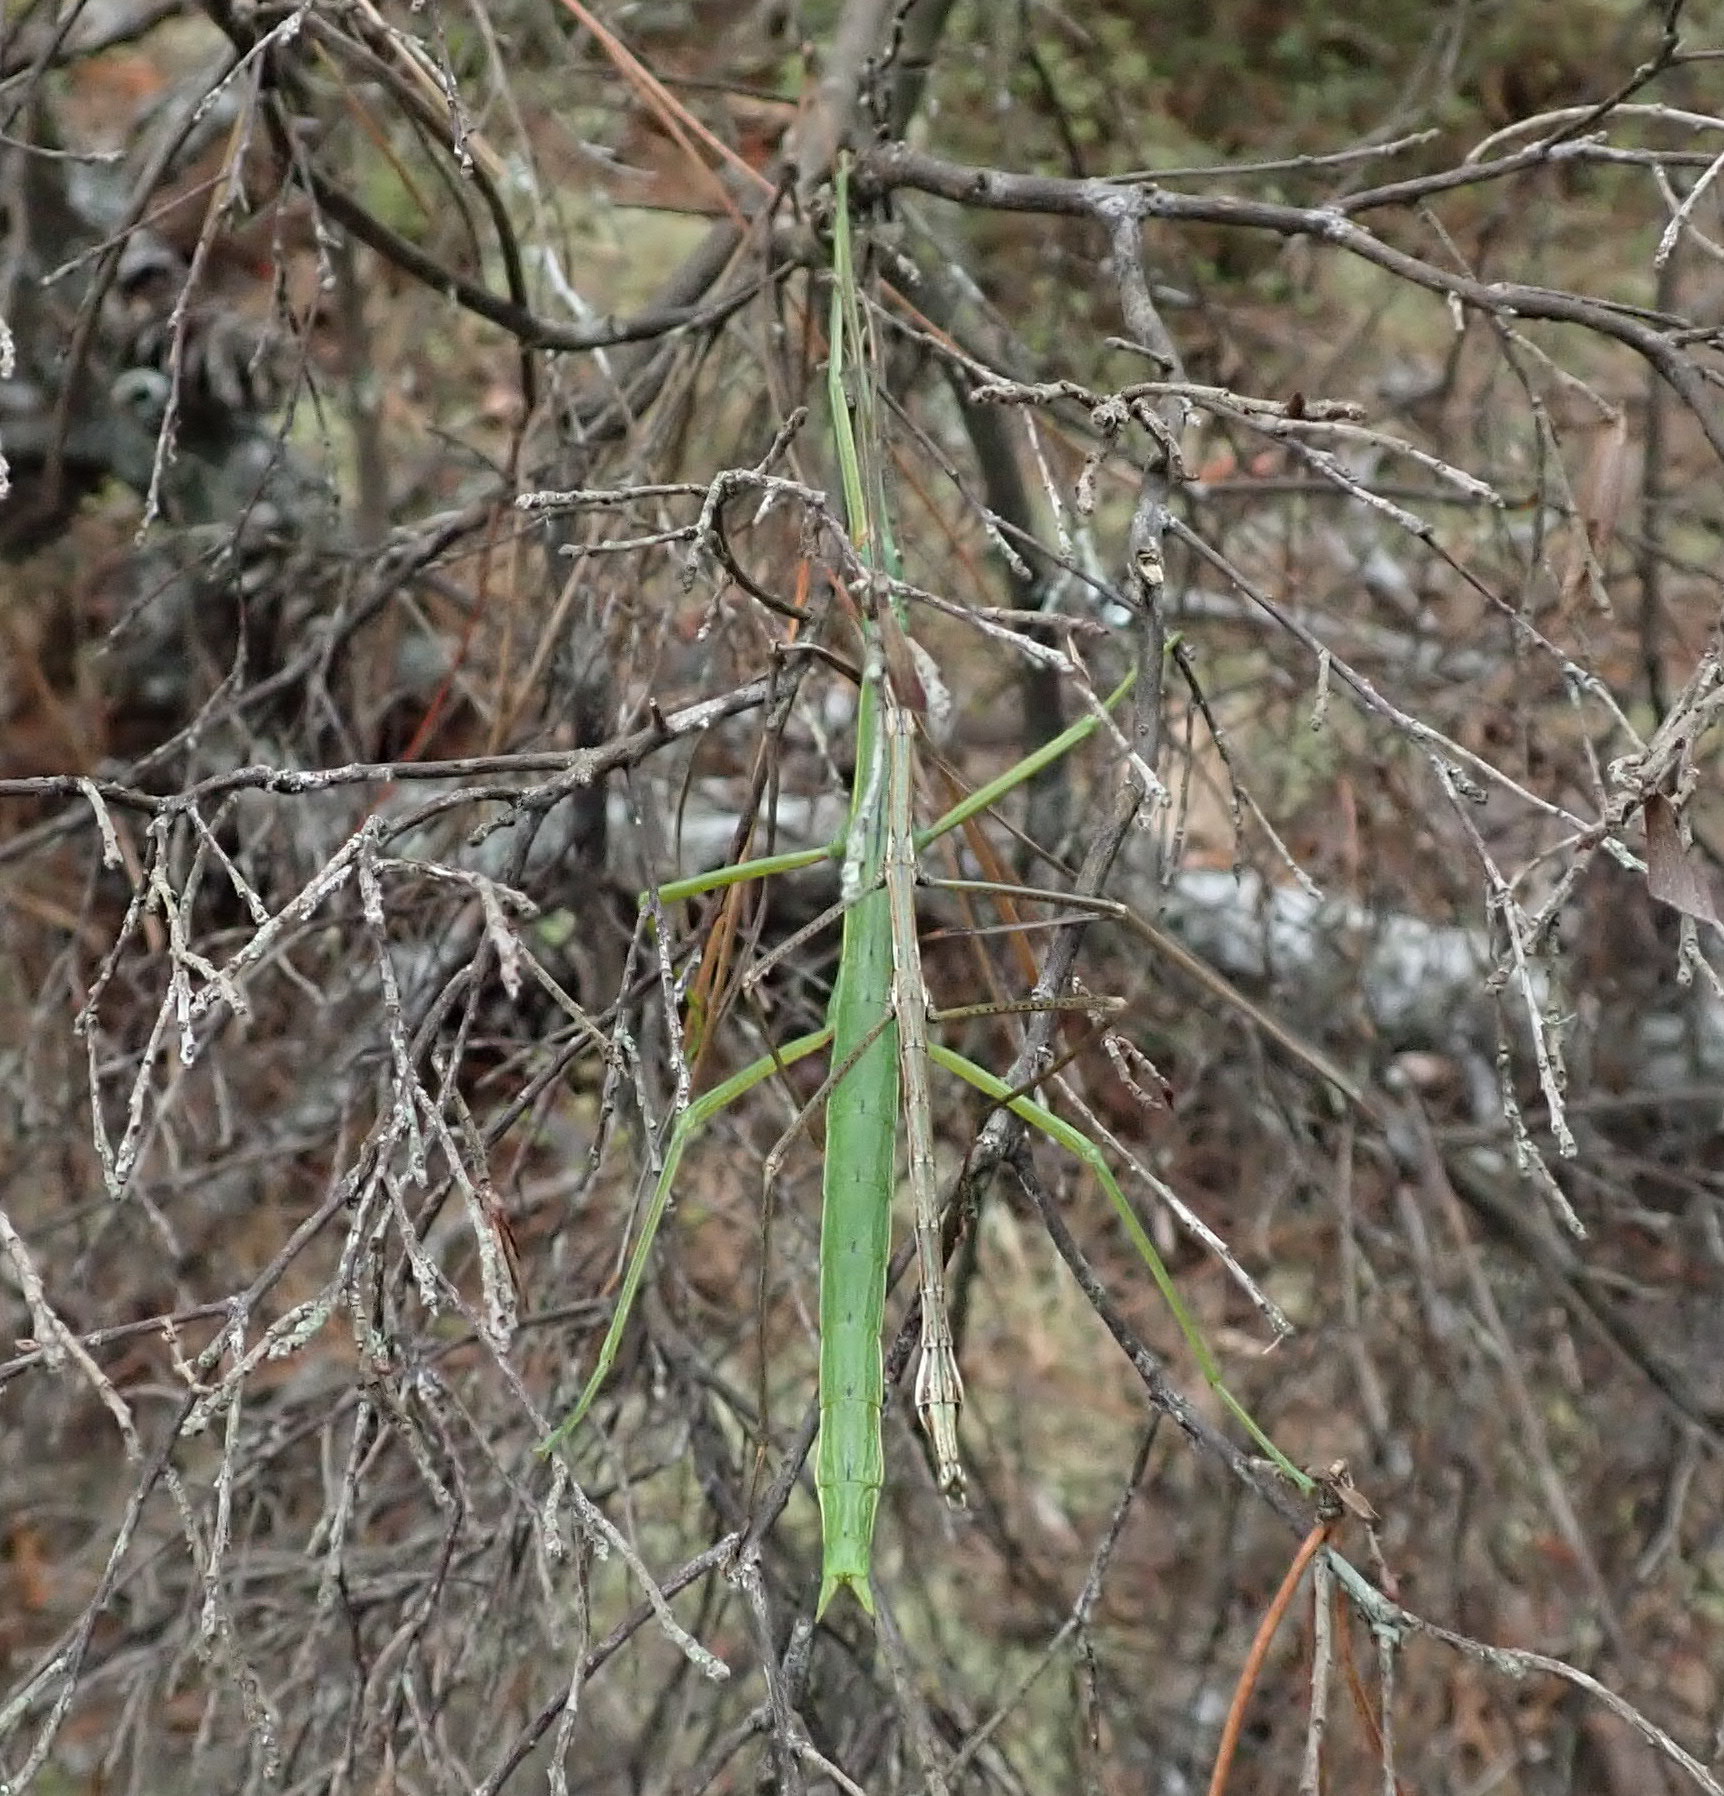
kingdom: Animalia
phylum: Arthropoda
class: Insecta
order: Phasmida
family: Phasmatidae
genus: Clitarchus
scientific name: Clitarchus hookeri
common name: Smooth stick insect
